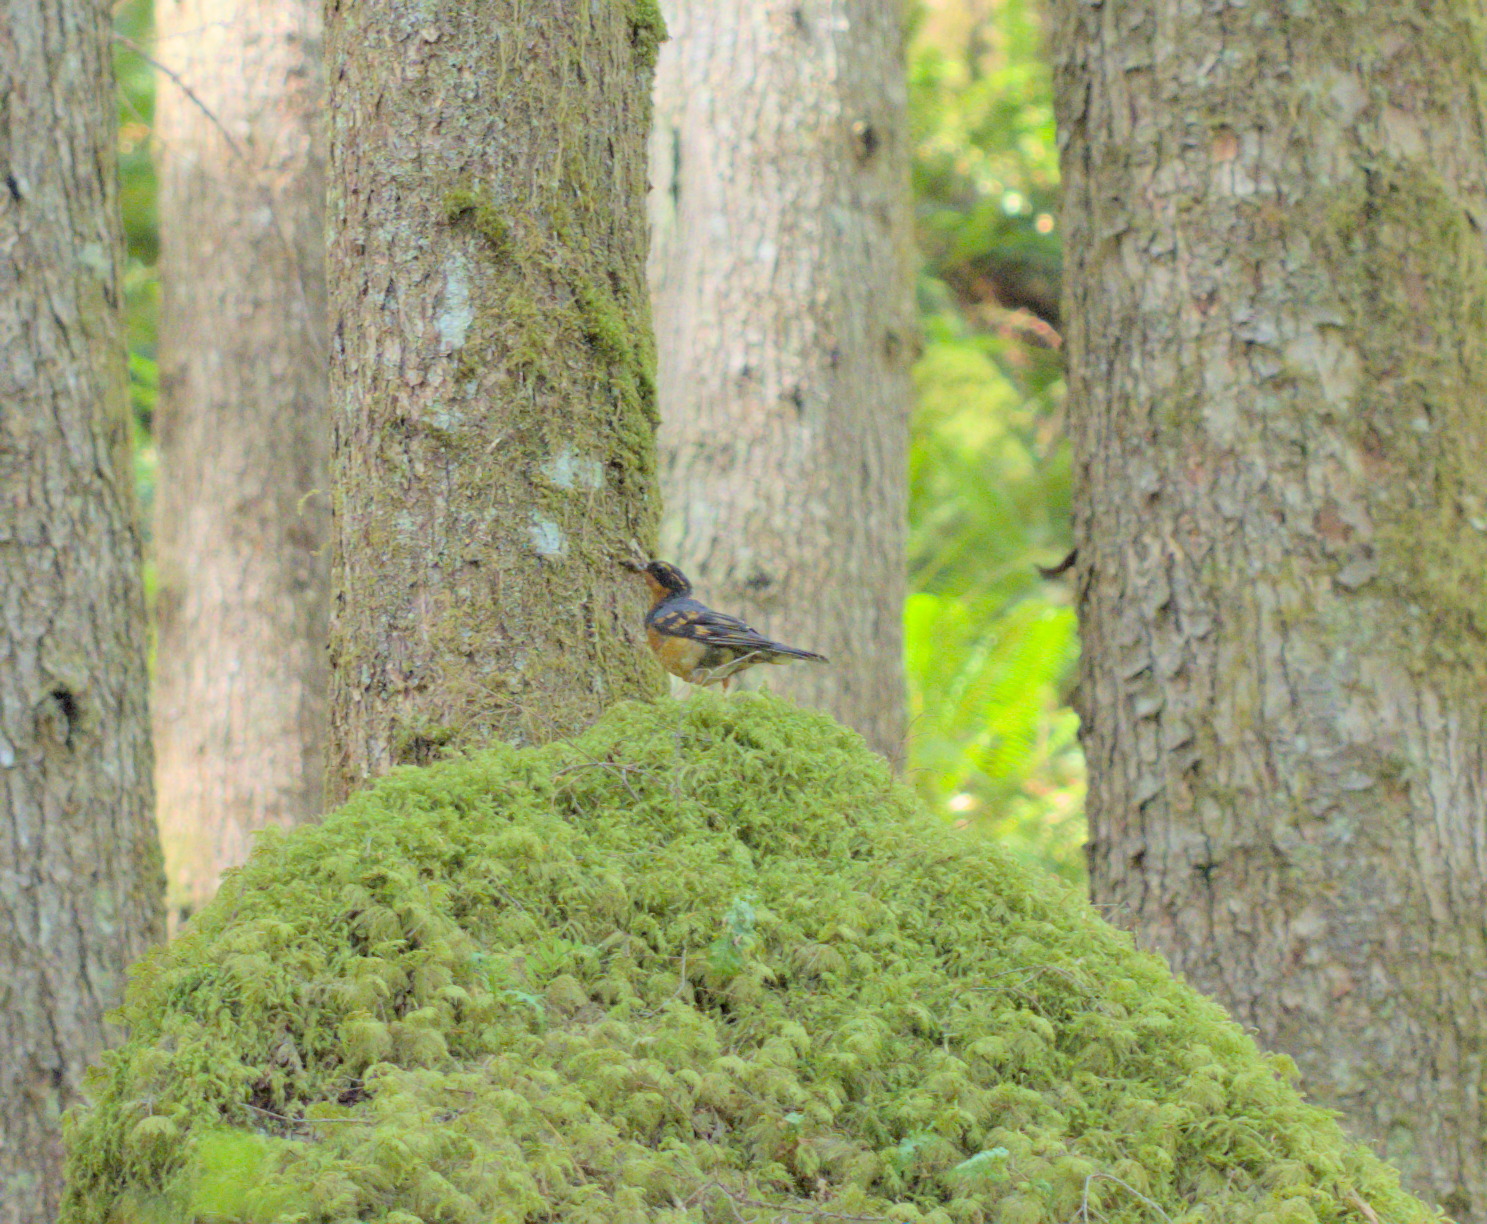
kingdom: Animalia
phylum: Chordata
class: Aves
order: Passeriformes
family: Turdidae
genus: Ixoreus
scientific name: Ixoreus naevius
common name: Varied thrush
